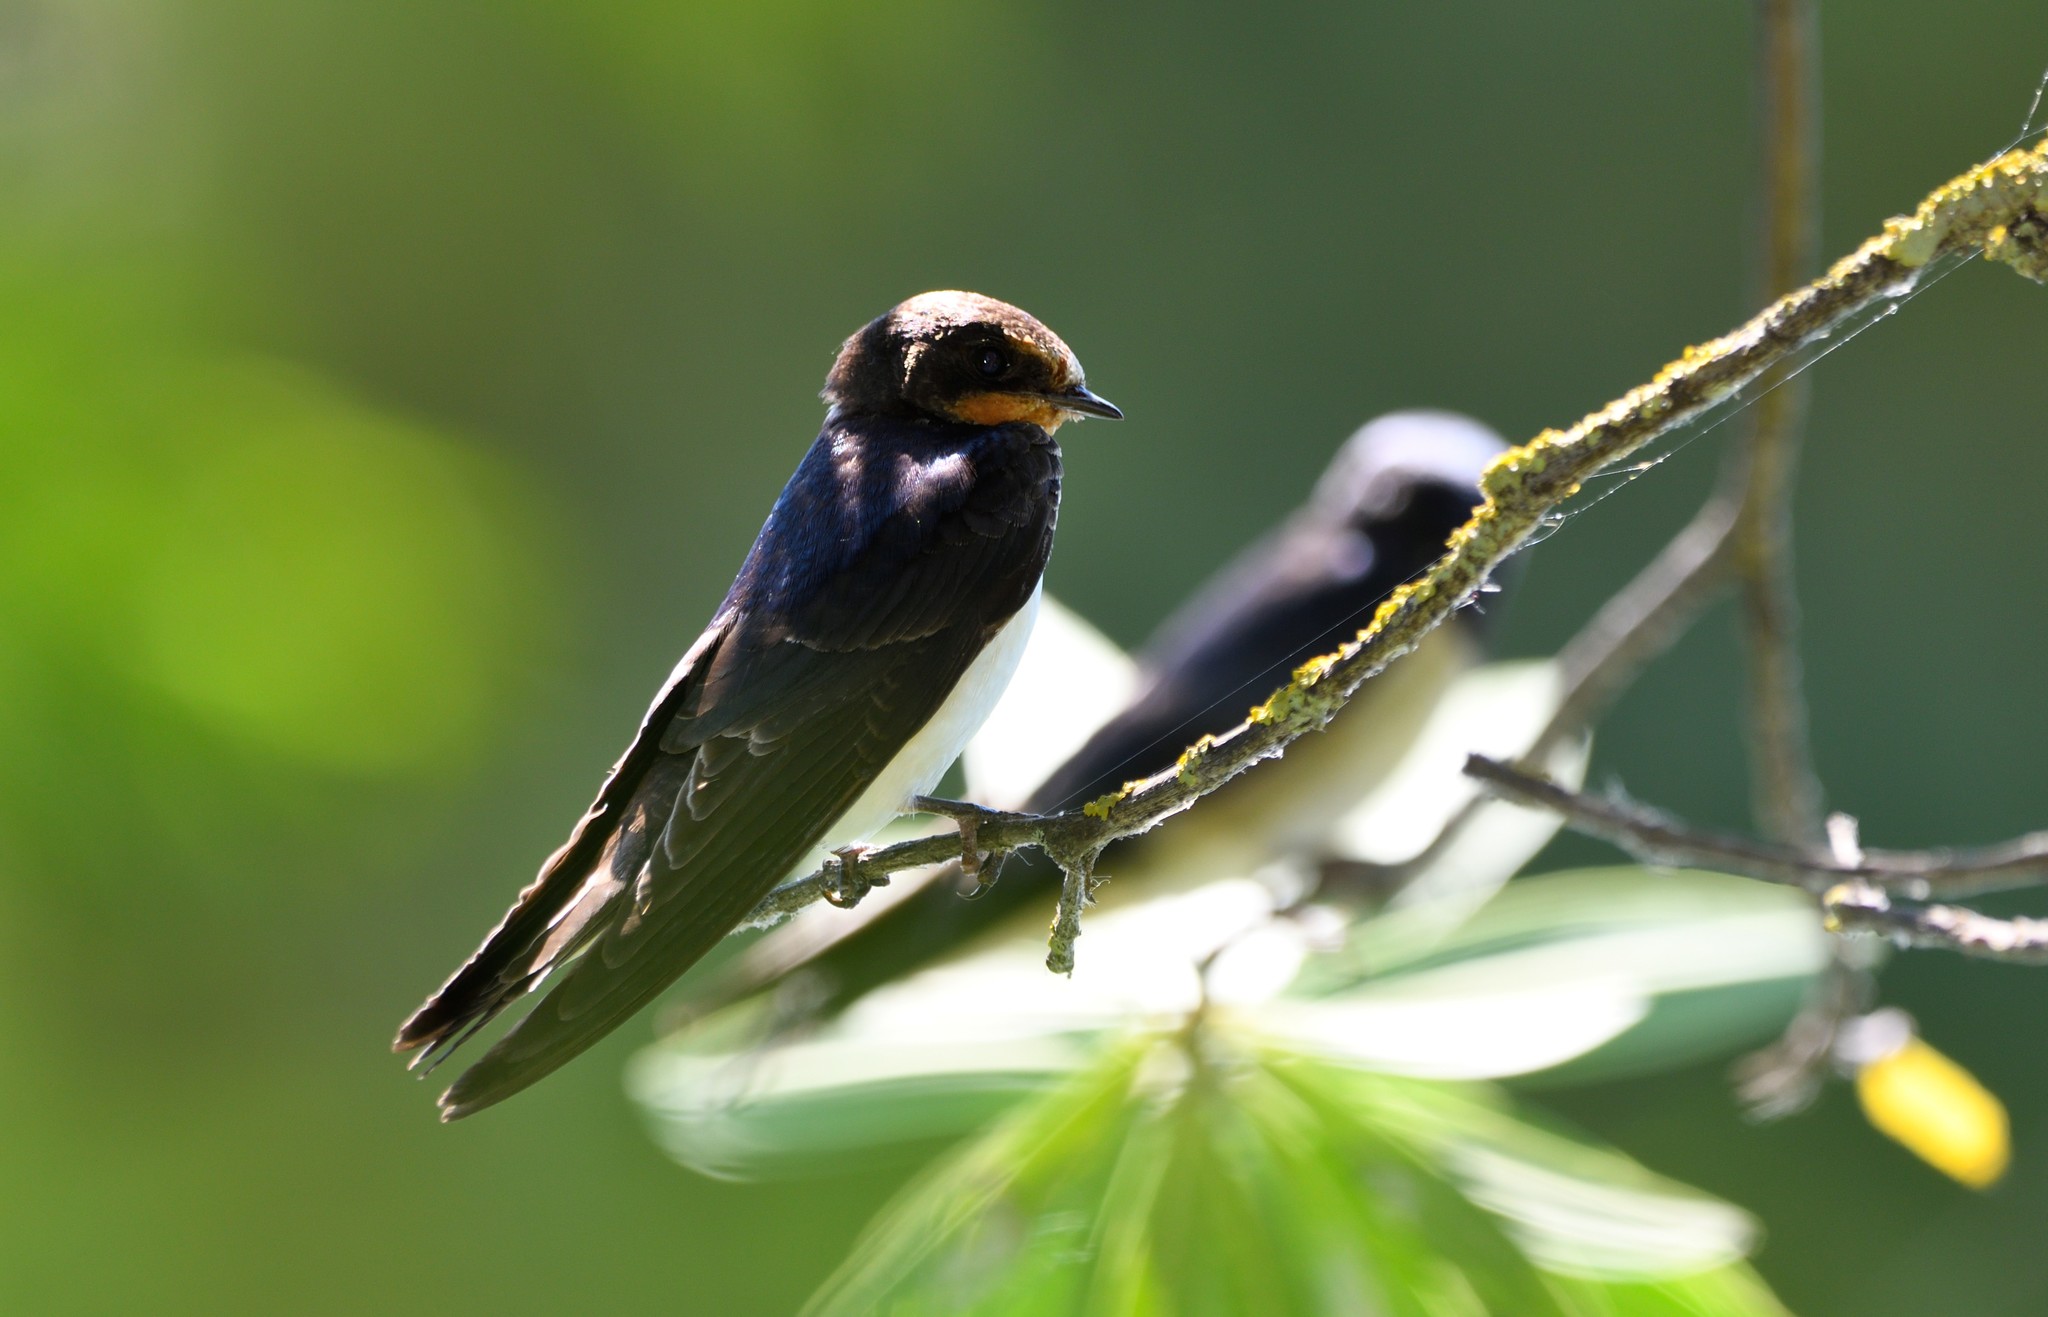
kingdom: Animalia
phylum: Chordata
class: Aves
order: Passeriformes
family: Hirundinidae
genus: Hirundo
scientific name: Hirundo rustica
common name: Barn swallow
